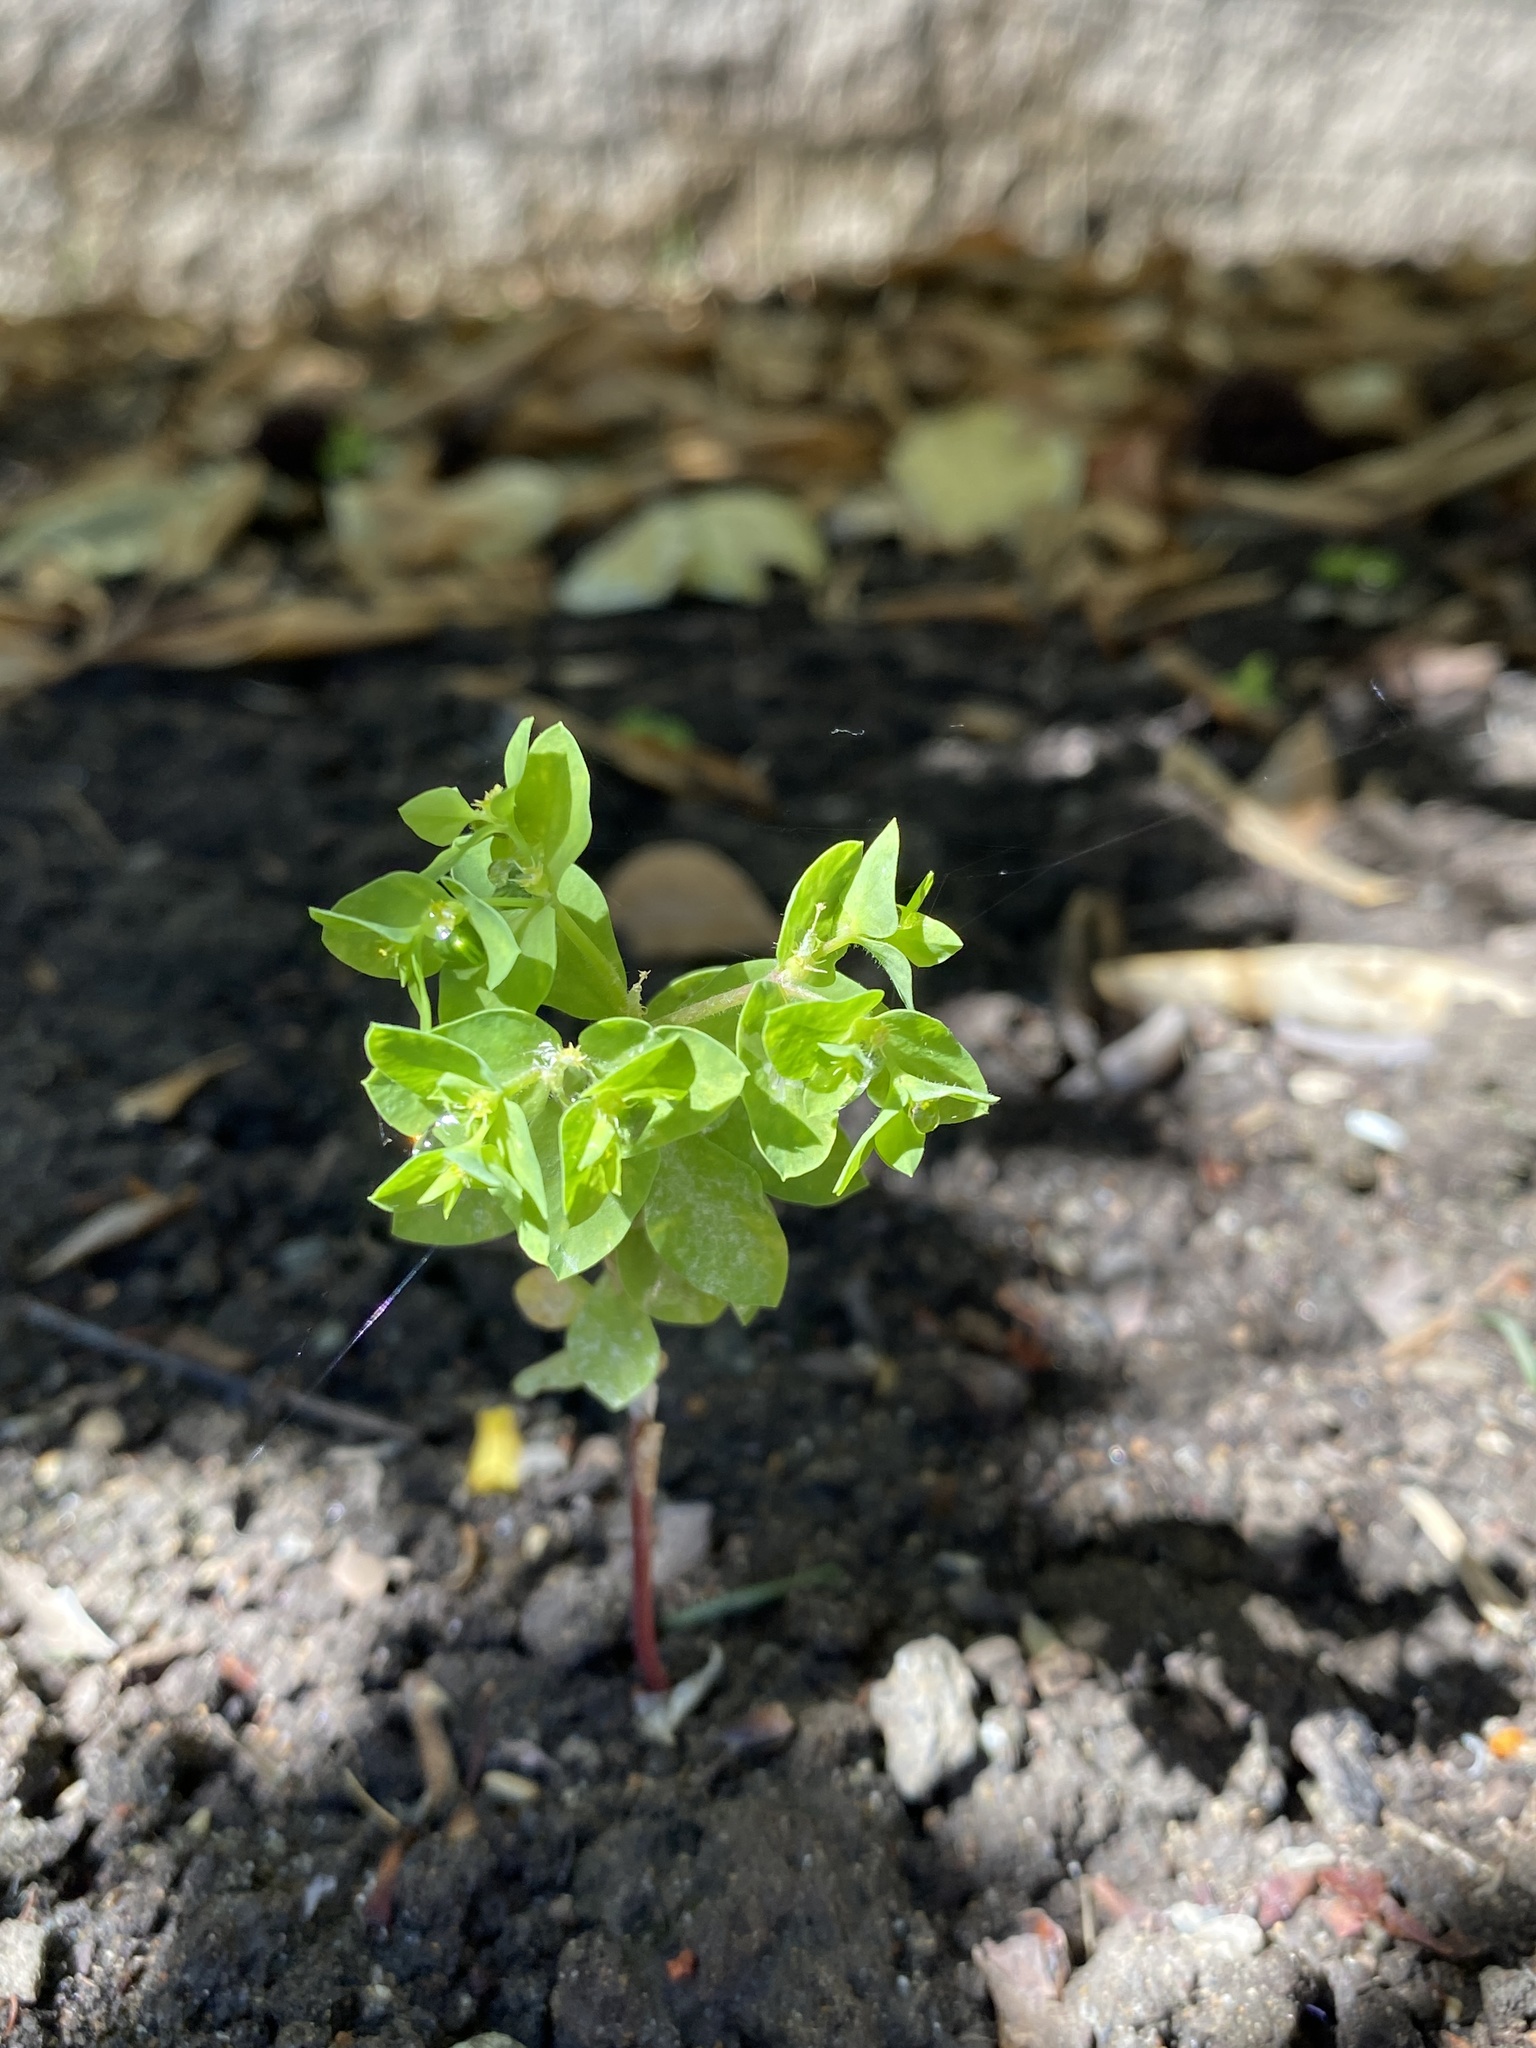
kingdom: Plantae
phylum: Tracheophyta
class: Magnoliopsida
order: Malpighiales
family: Euphorbiaceae
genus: Euphorbia
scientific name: Euphorbia peplus
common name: Petty spurge
